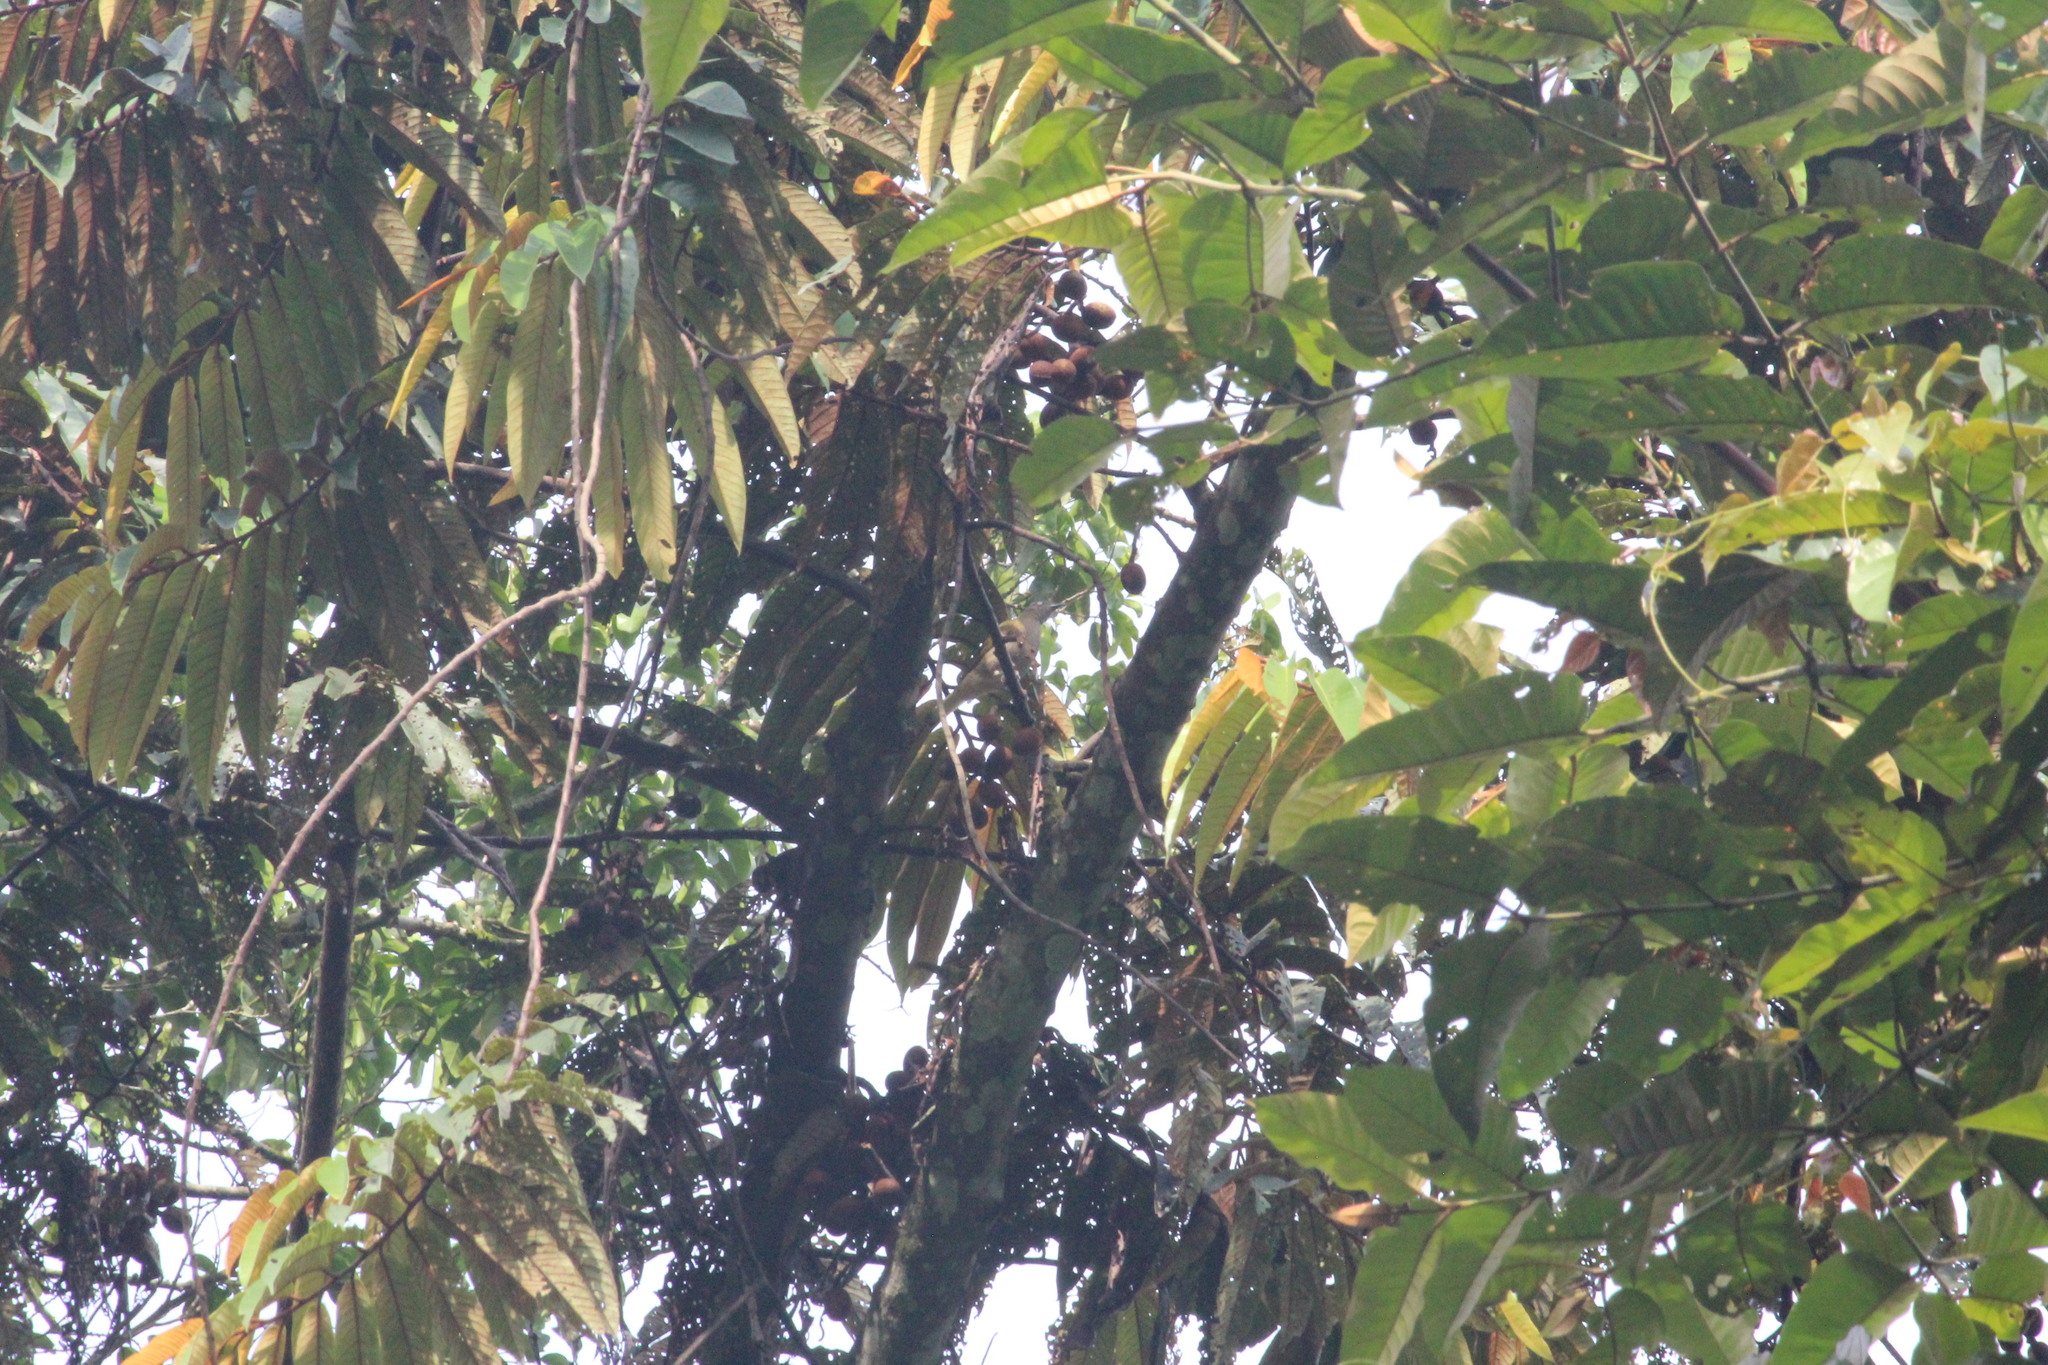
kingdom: Animalia
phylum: Chordata
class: Aves
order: Passeriformes
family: Pycnonotidae
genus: Baeopogon
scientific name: Baeopogon indicator
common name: Honeyguide greenbul
